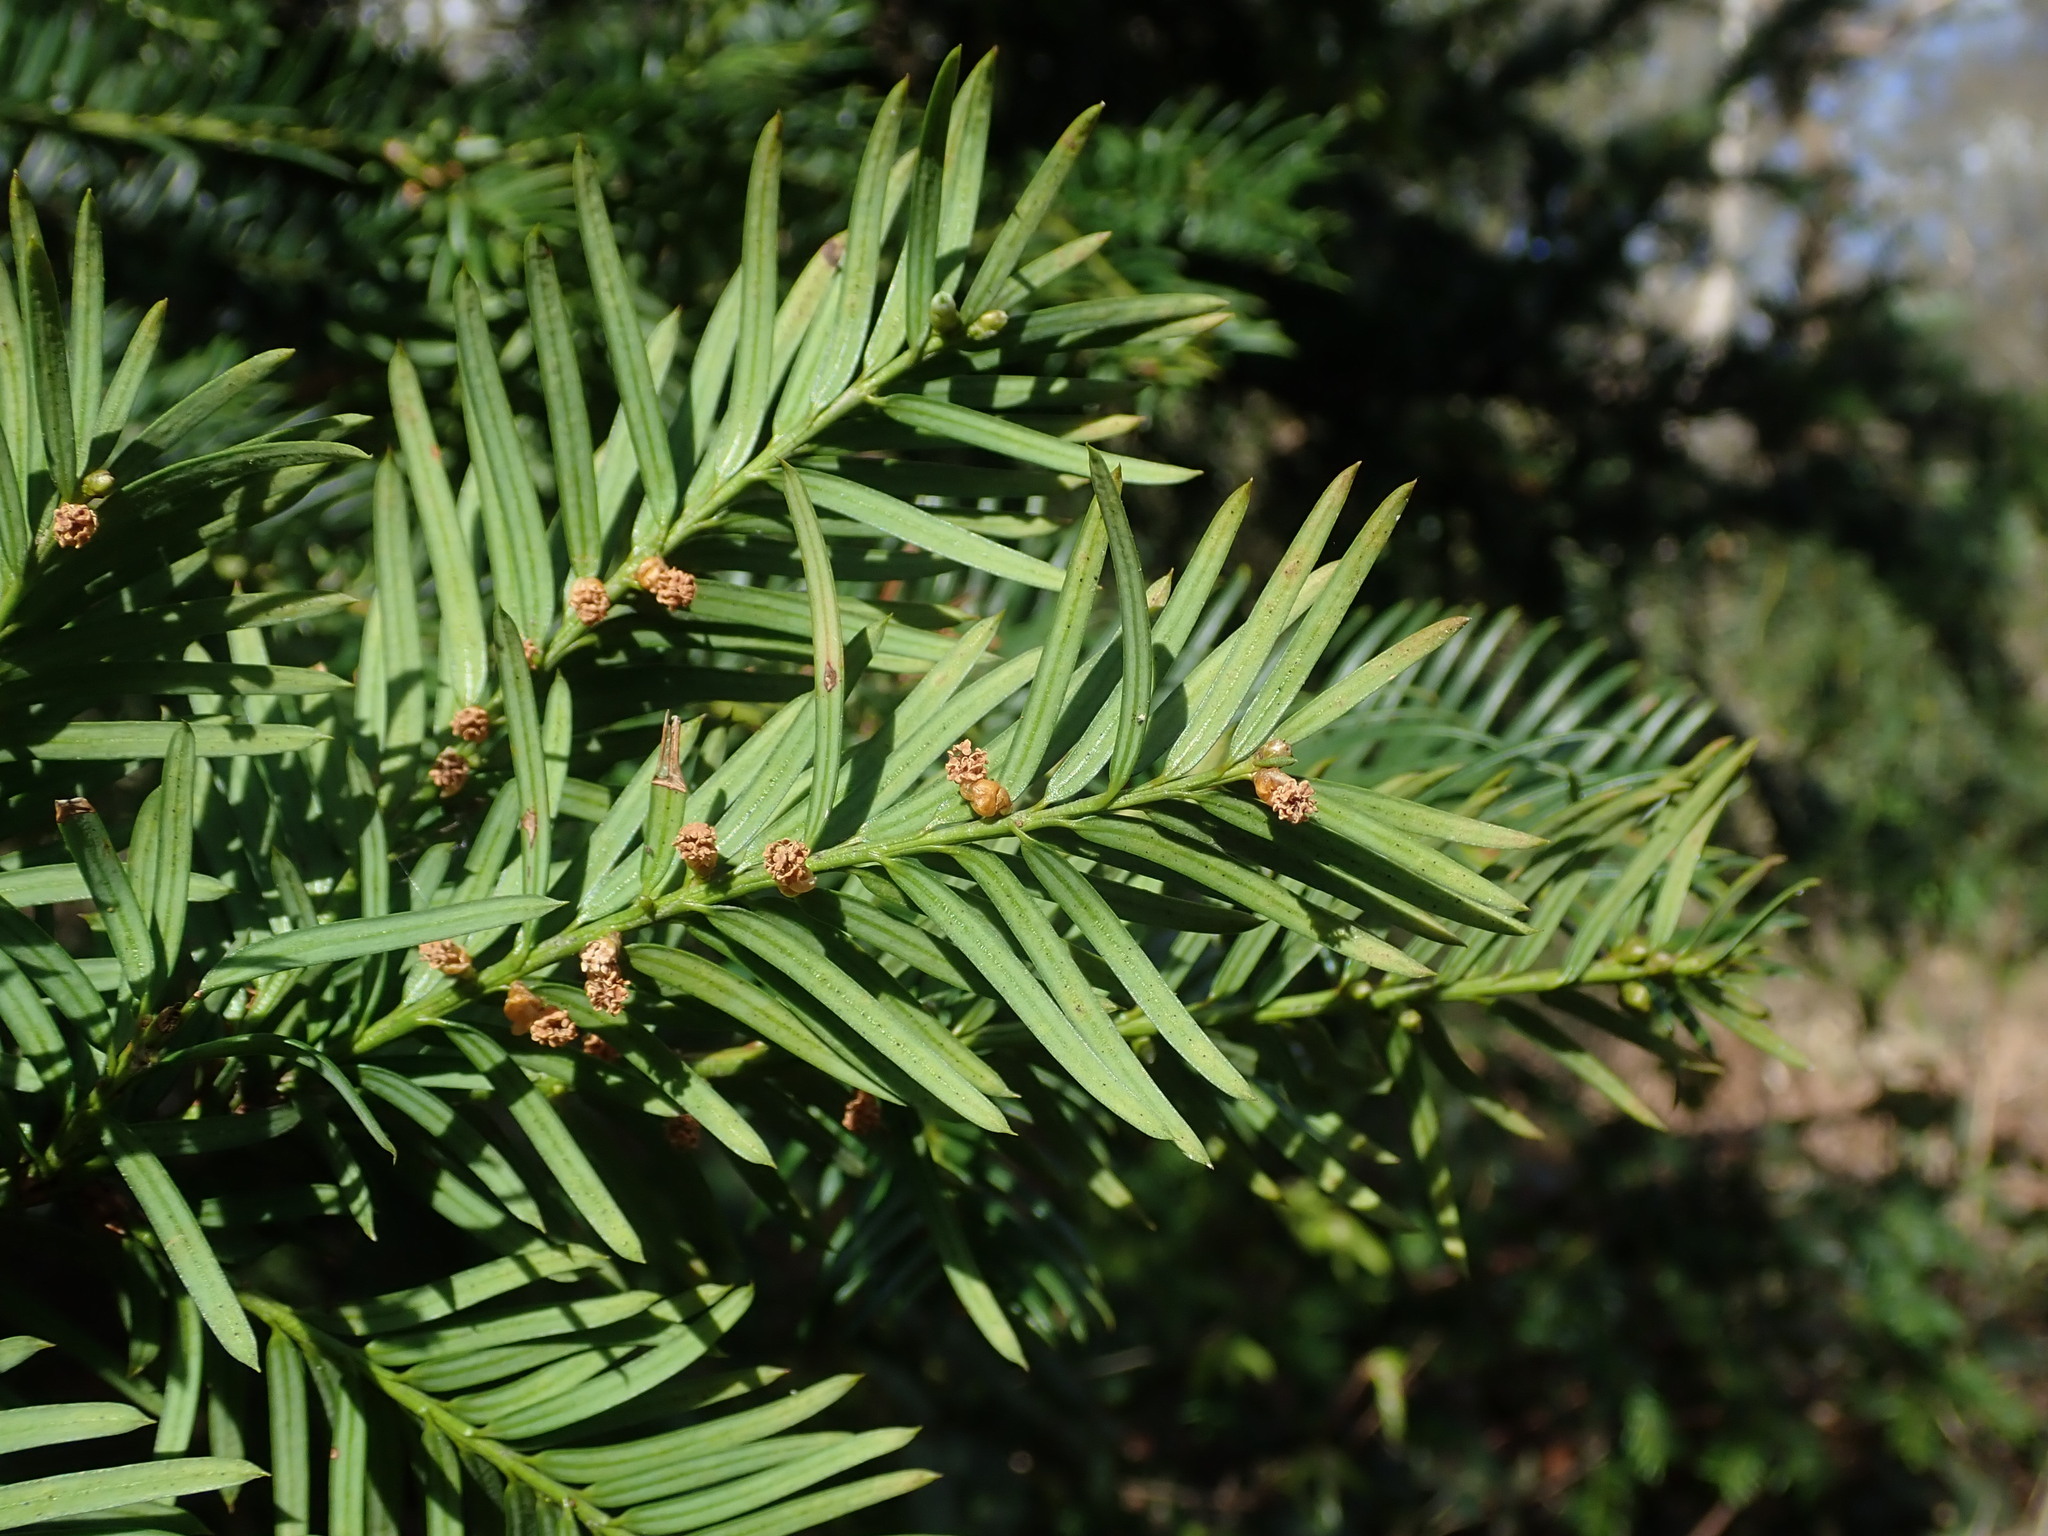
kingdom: Plantae
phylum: Tracheophyta
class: Pinopsida
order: Pinales
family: Taxaceae
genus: Taxus
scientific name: Taxus baccata
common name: Yew
